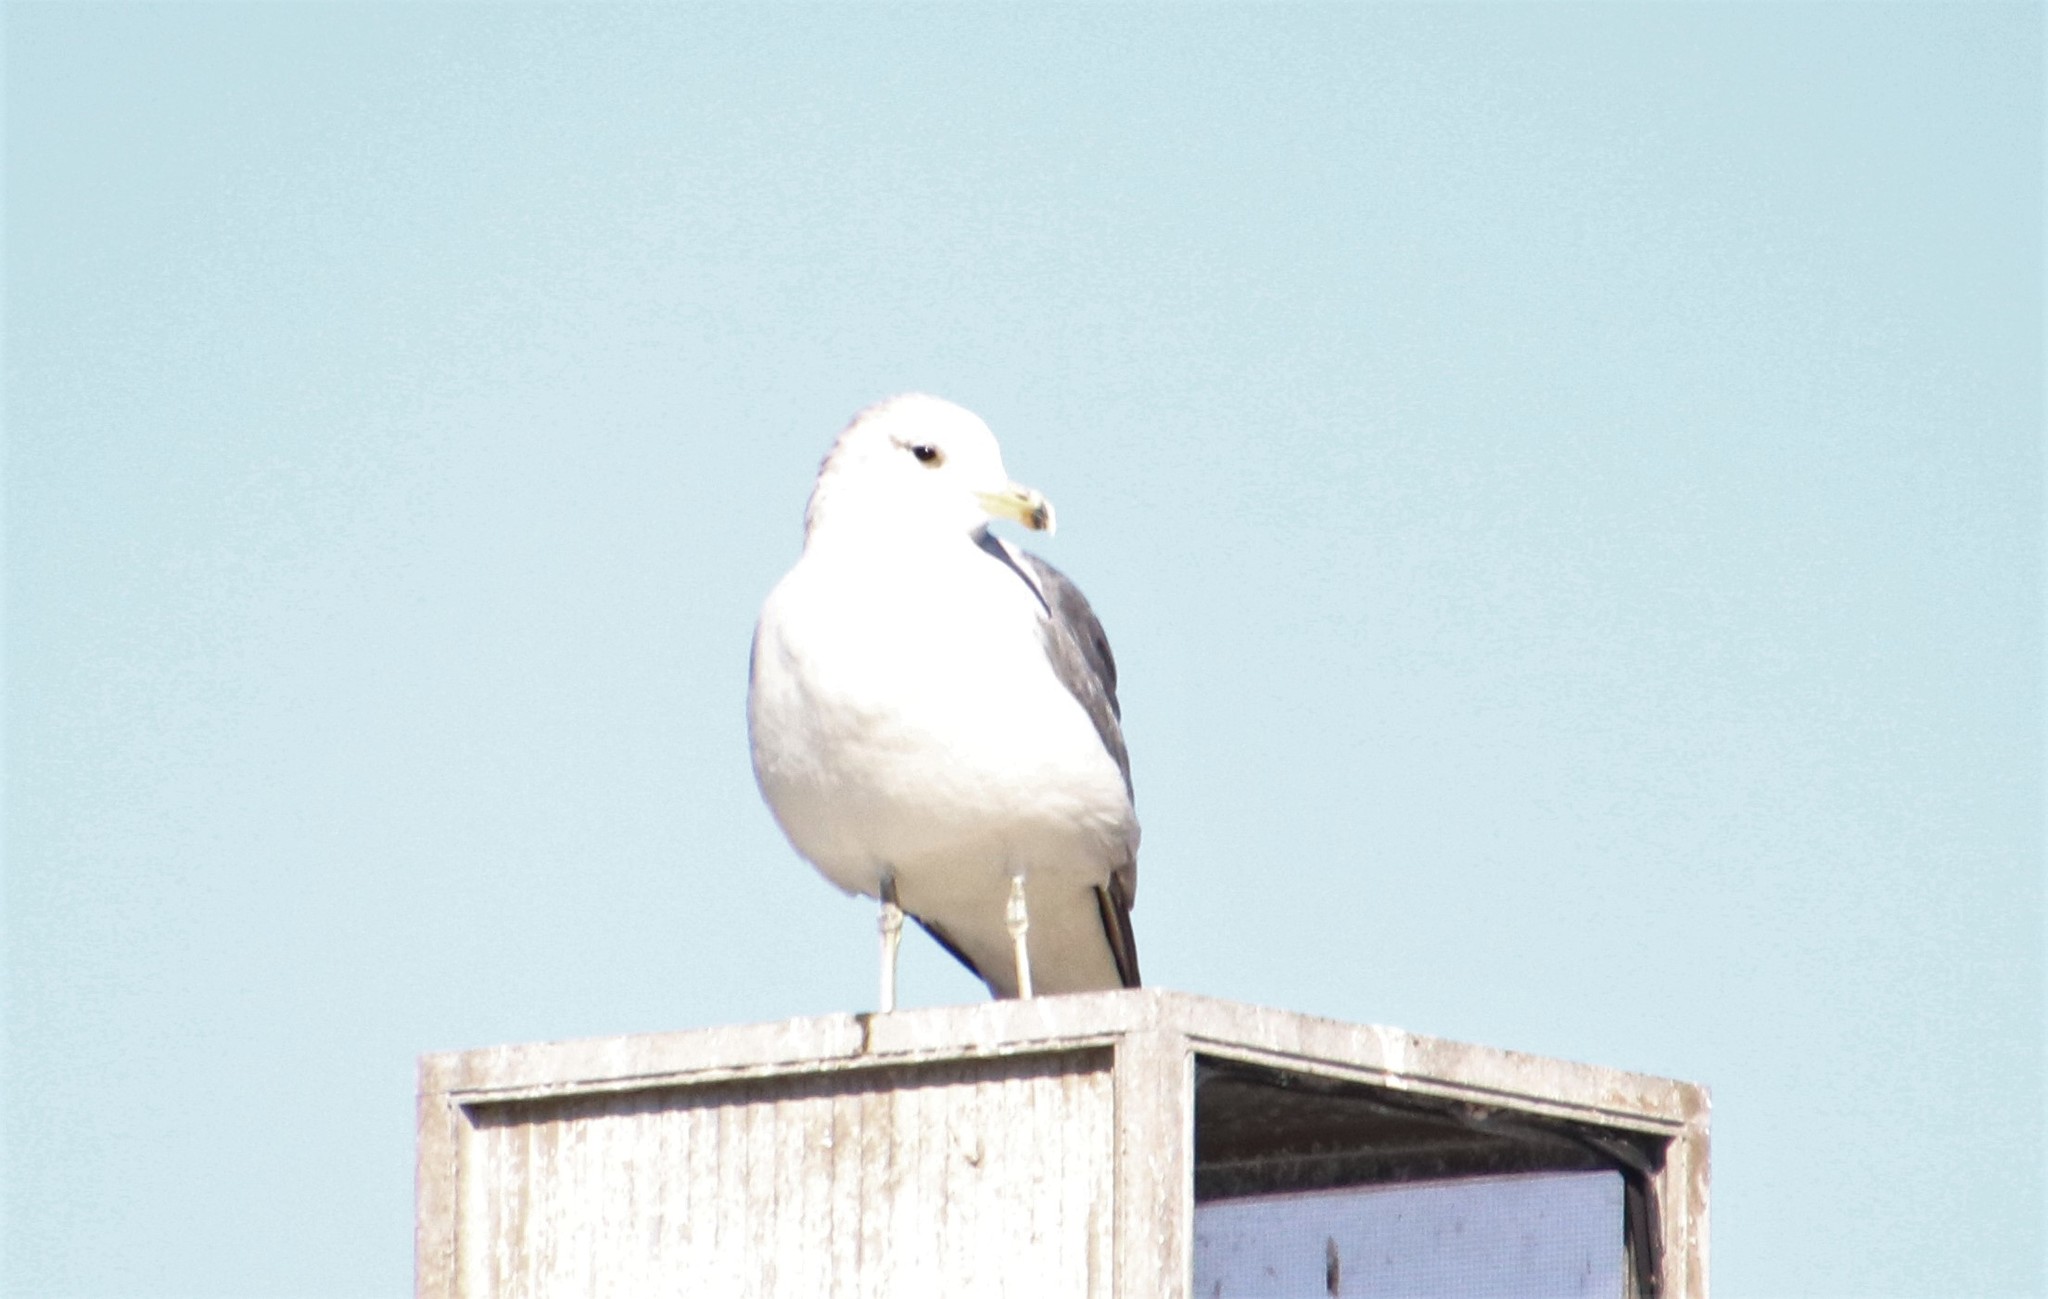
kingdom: Animalia
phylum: Chordata
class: Aves
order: Charadriiformes
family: Laridae
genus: Larus
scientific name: Larus californicus
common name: California gull
